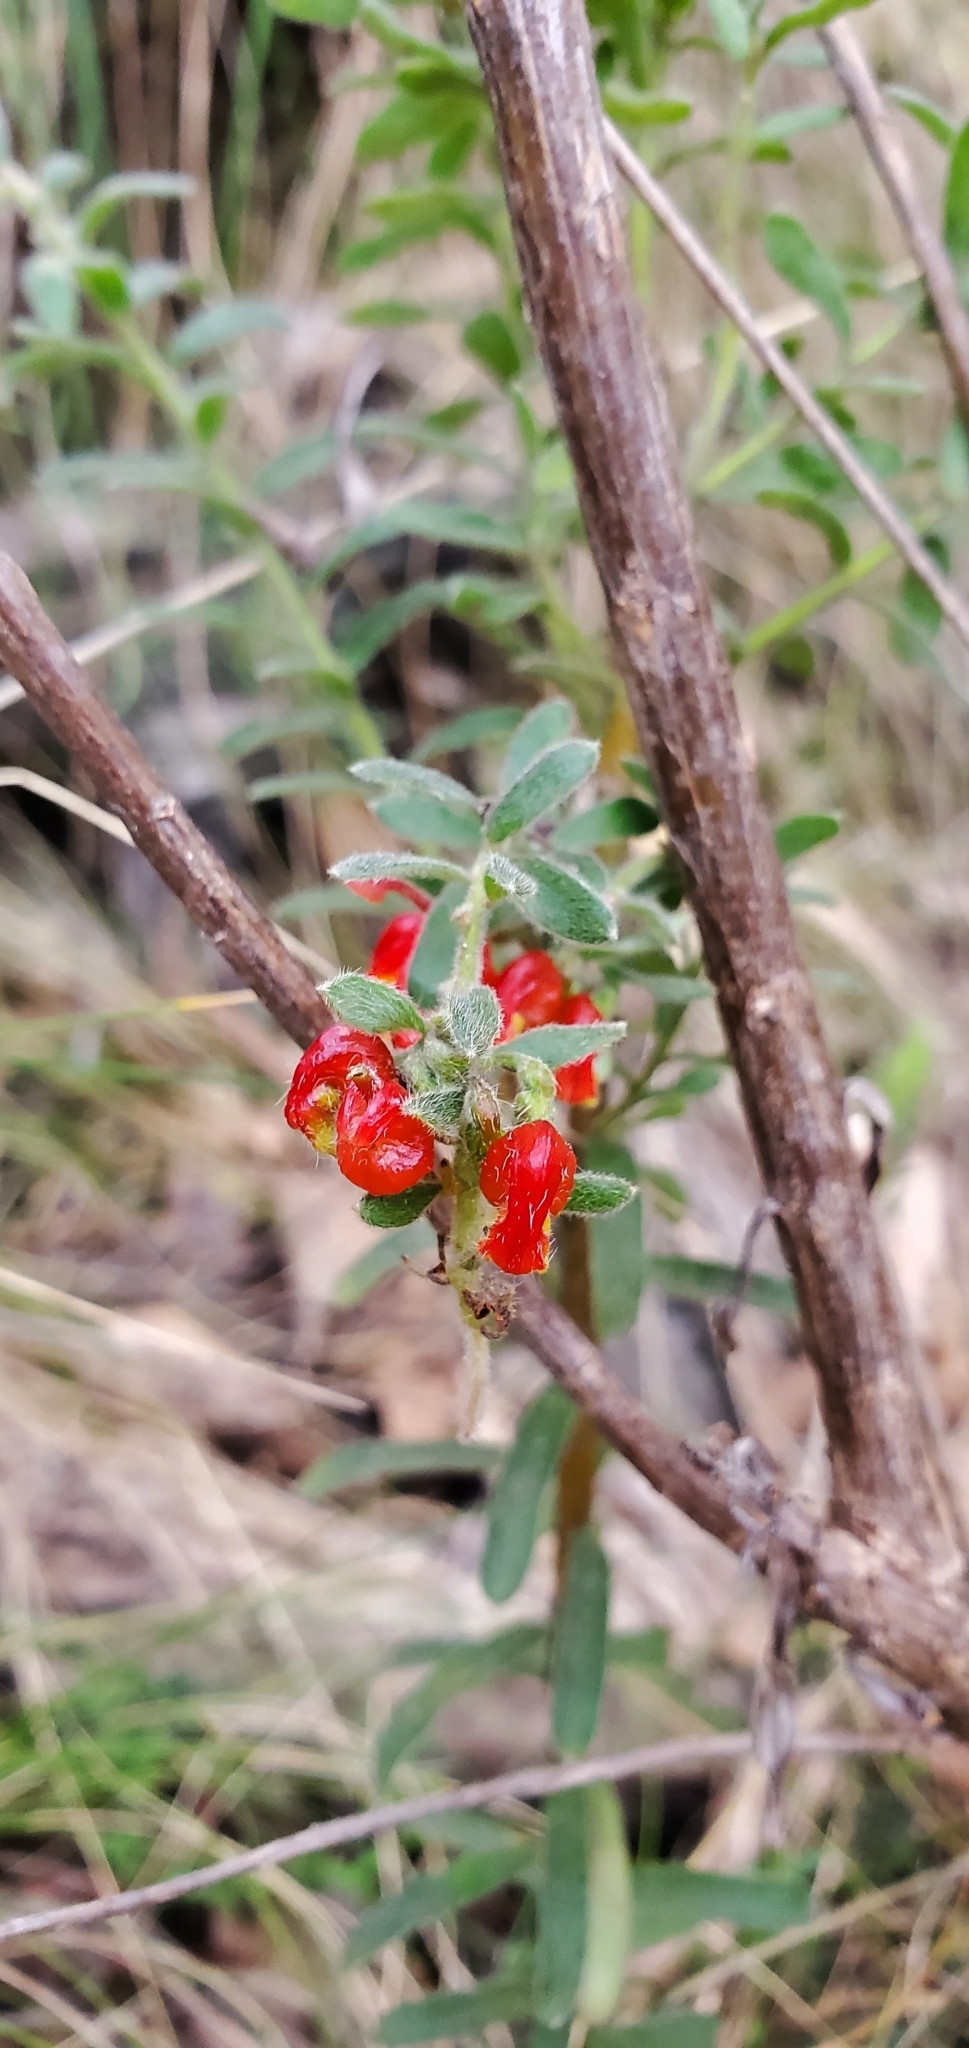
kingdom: Plantae
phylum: Tracheophyta
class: Magnoliopsida
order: Proteales
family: Proteaceae
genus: Grevillea
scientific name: Grevillea alpina
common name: Catclaws grevillea
